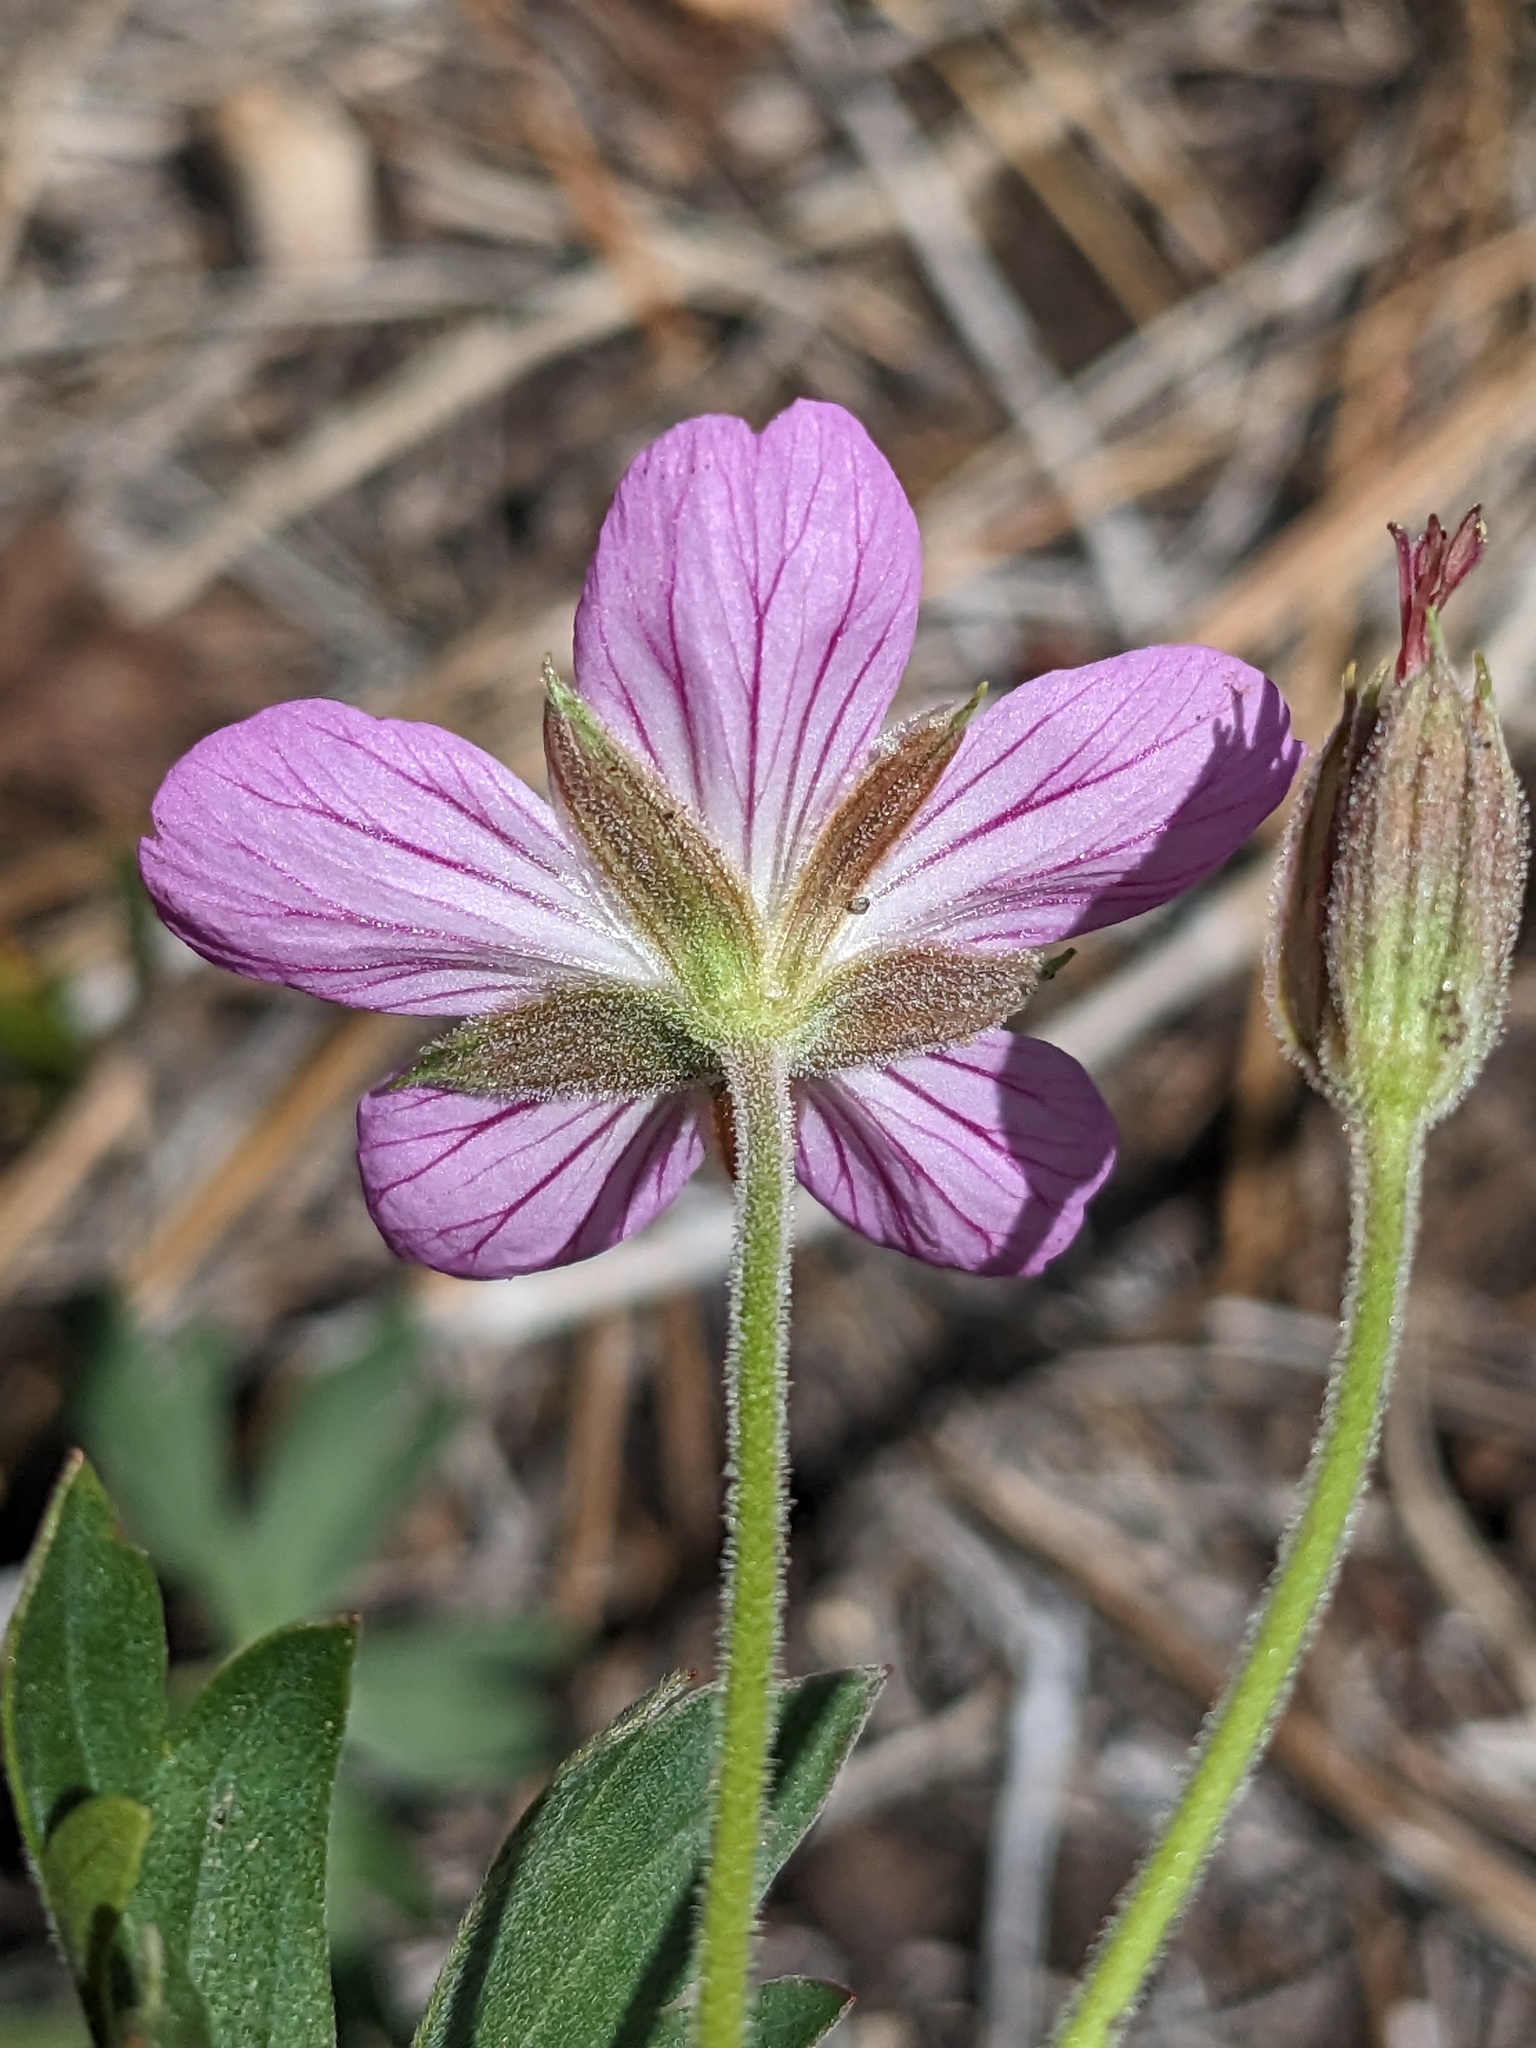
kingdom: Plantae
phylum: Tracheophyta
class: Magnoliopsida
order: Geraniales
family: Geraniaceae
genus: Geranium
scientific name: Geranium californicum
